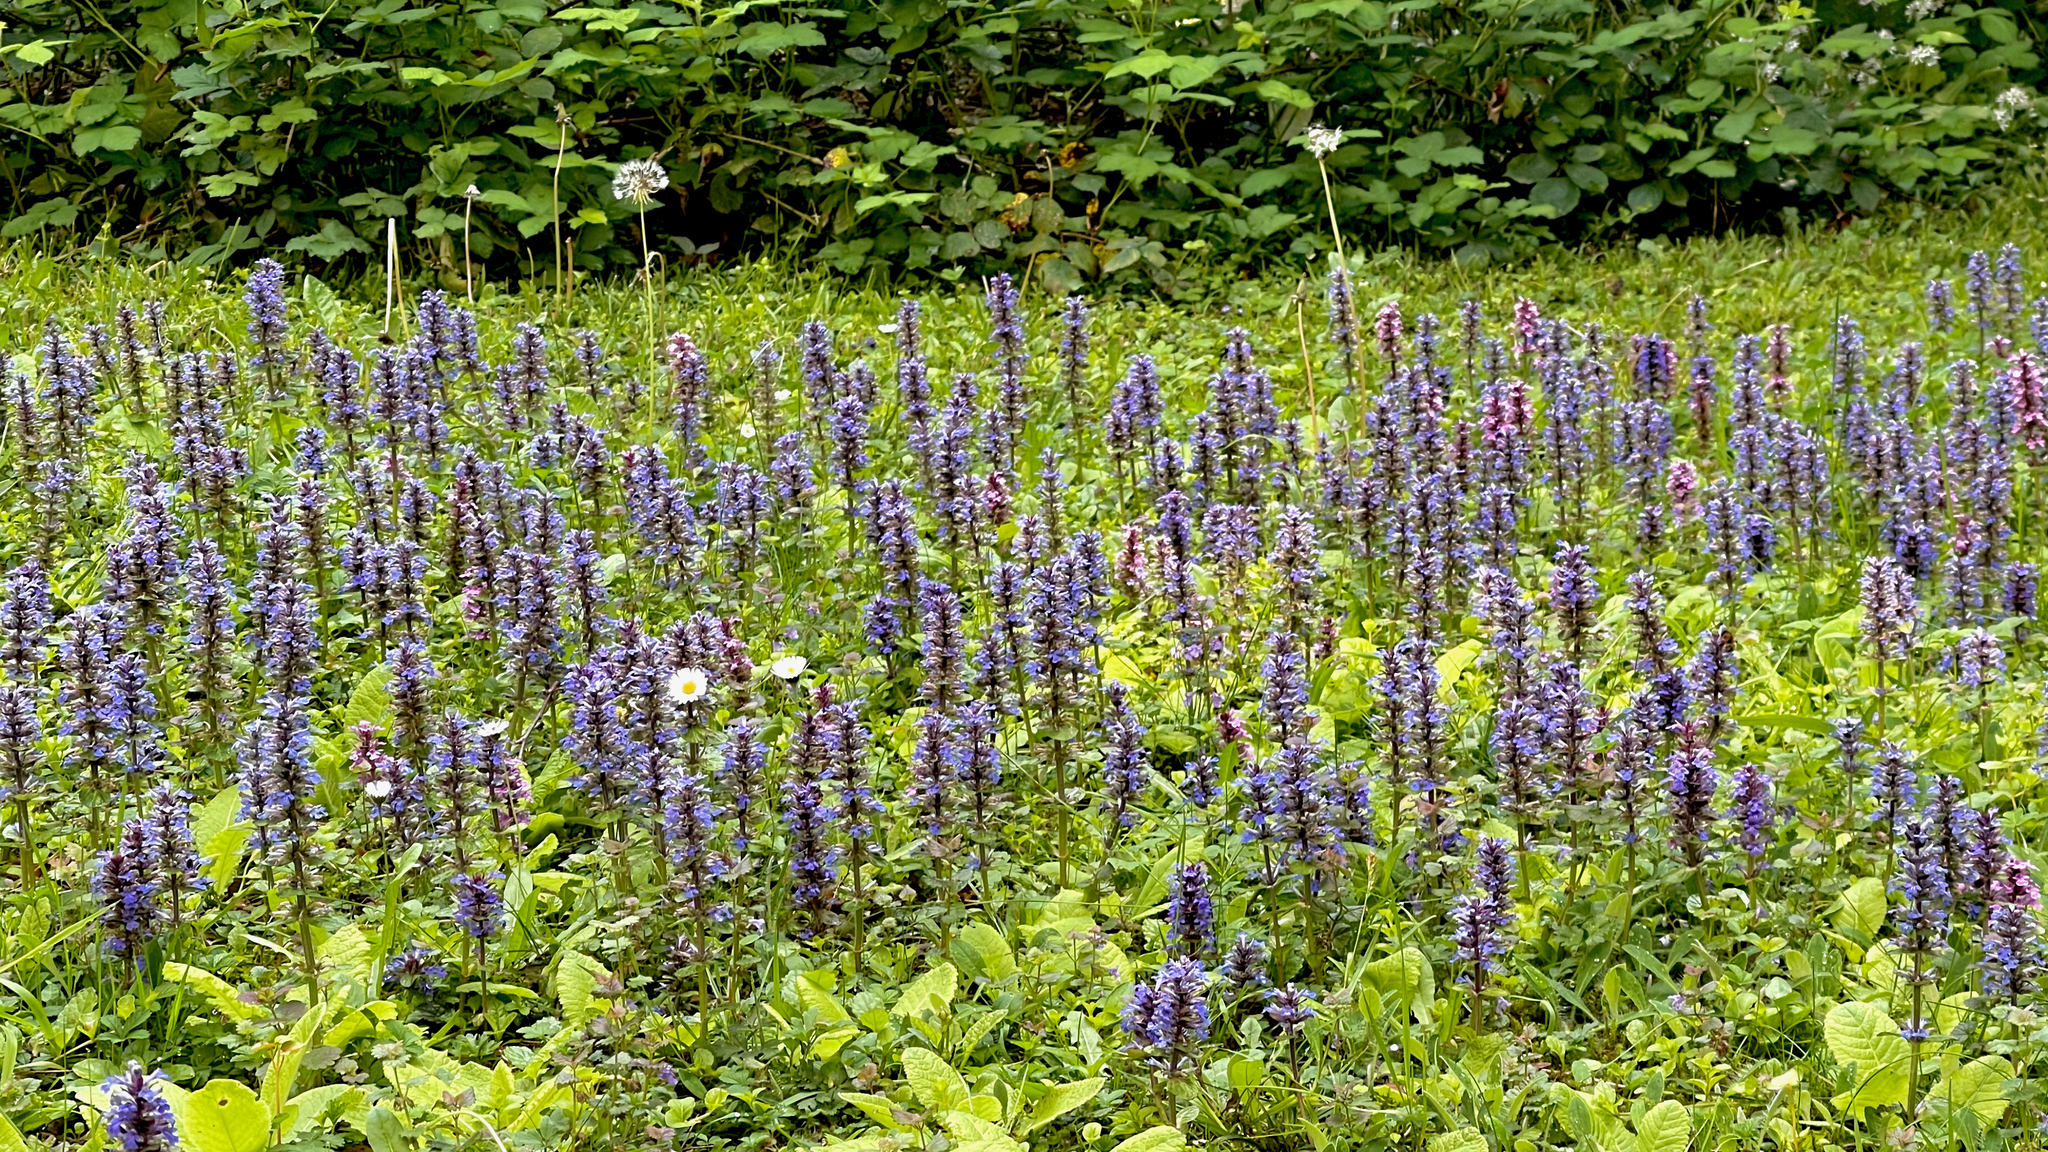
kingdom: Plantae
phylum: Tracheophyta
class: Magnoliopsida
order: Lamiales
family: Lamiaceae
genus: Ajuga
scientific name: Ajuga reptans
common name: Bugle
